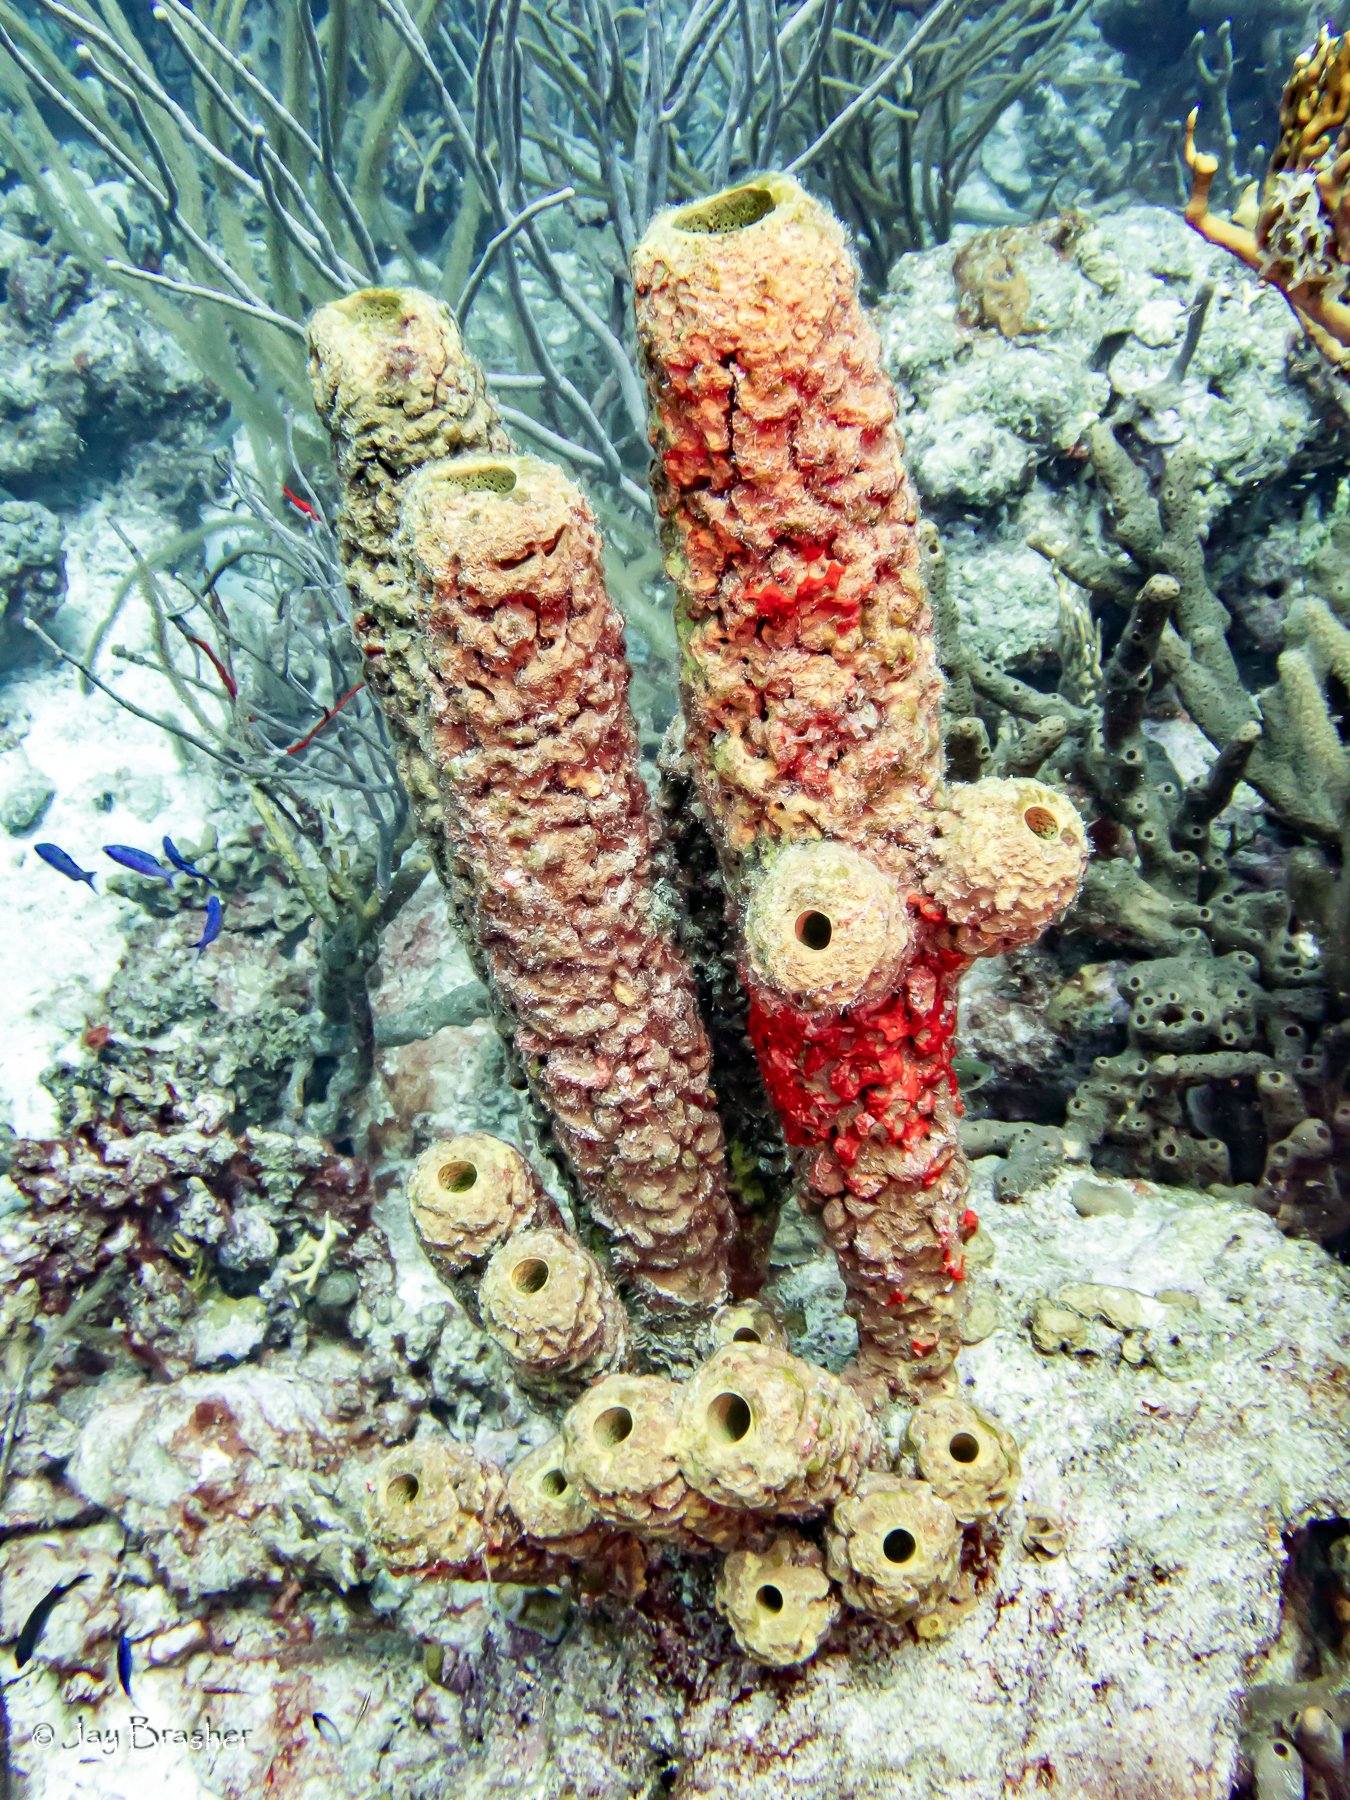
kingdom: Animalia
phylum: Porifera
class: Demospongiae
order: Verongiida
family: Aplysinidae
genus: Aplysina
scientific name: Aplysina archeri
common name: Stove-pipe sponge
